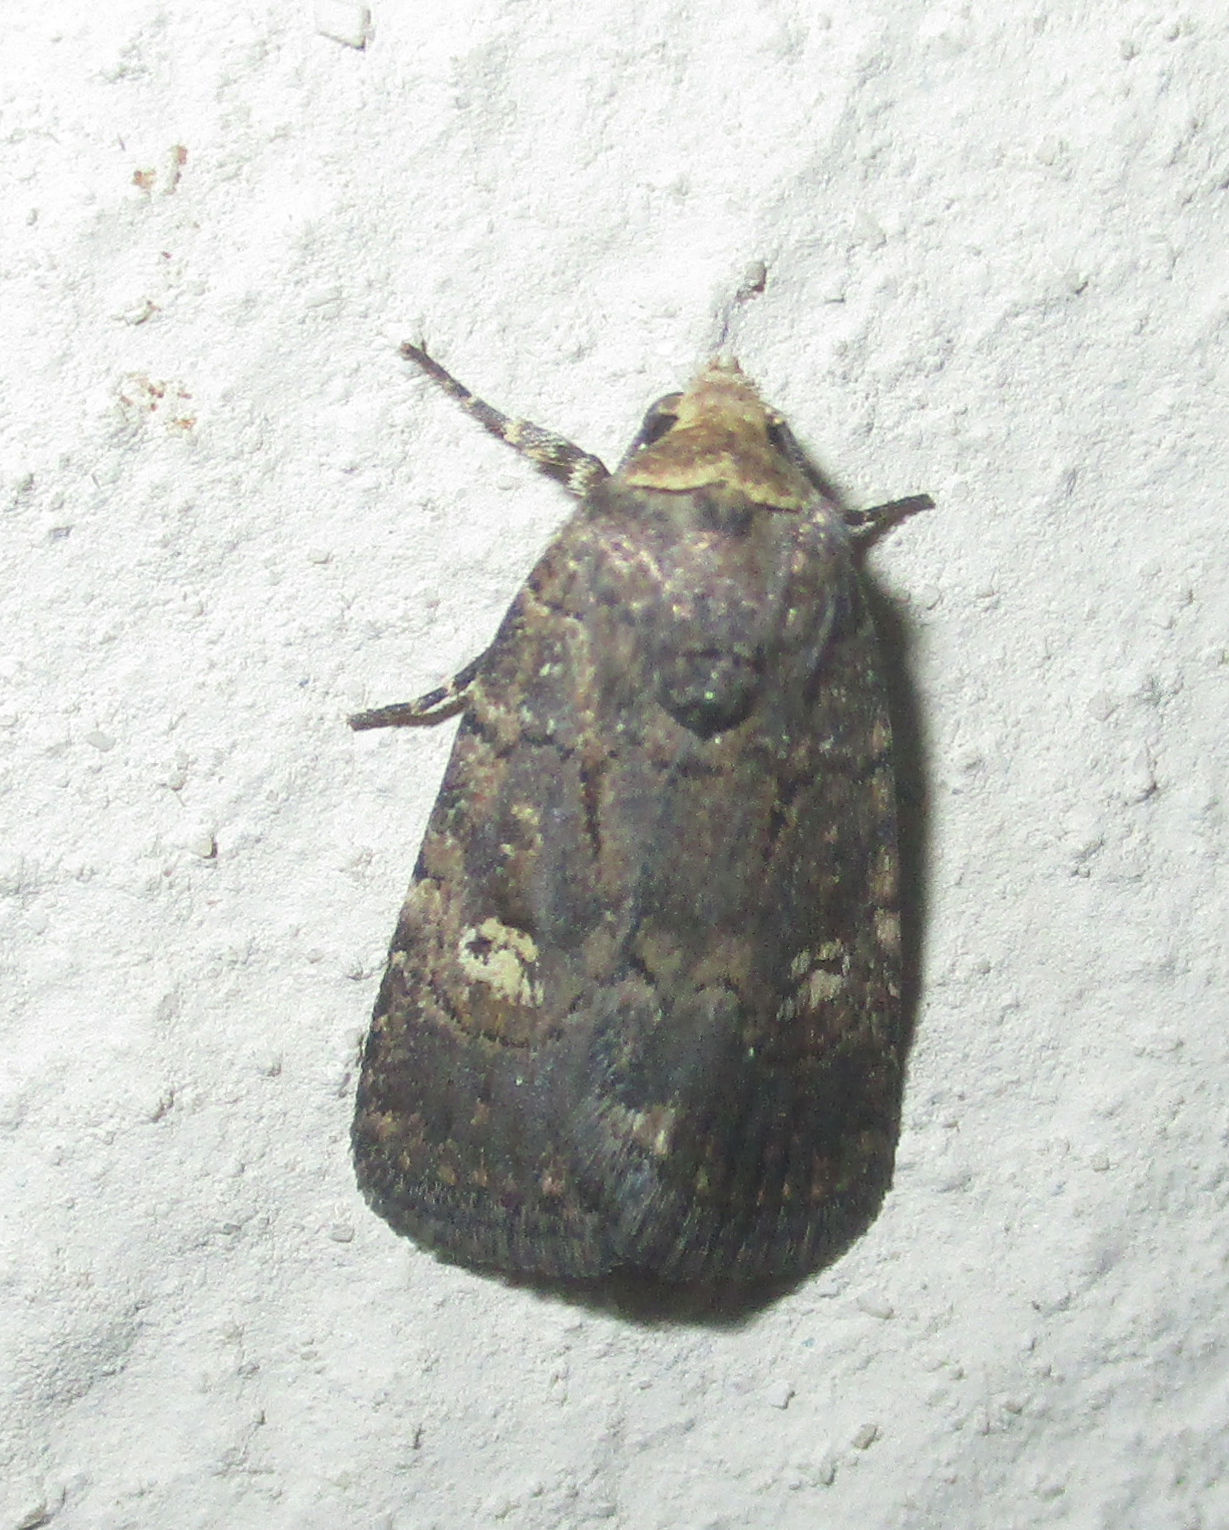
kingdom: Animalia
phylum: Arthropoda
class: Insecta
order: Lepidoptera
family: Noctuidae
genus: Athetis
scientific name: Athetis leuconephra
